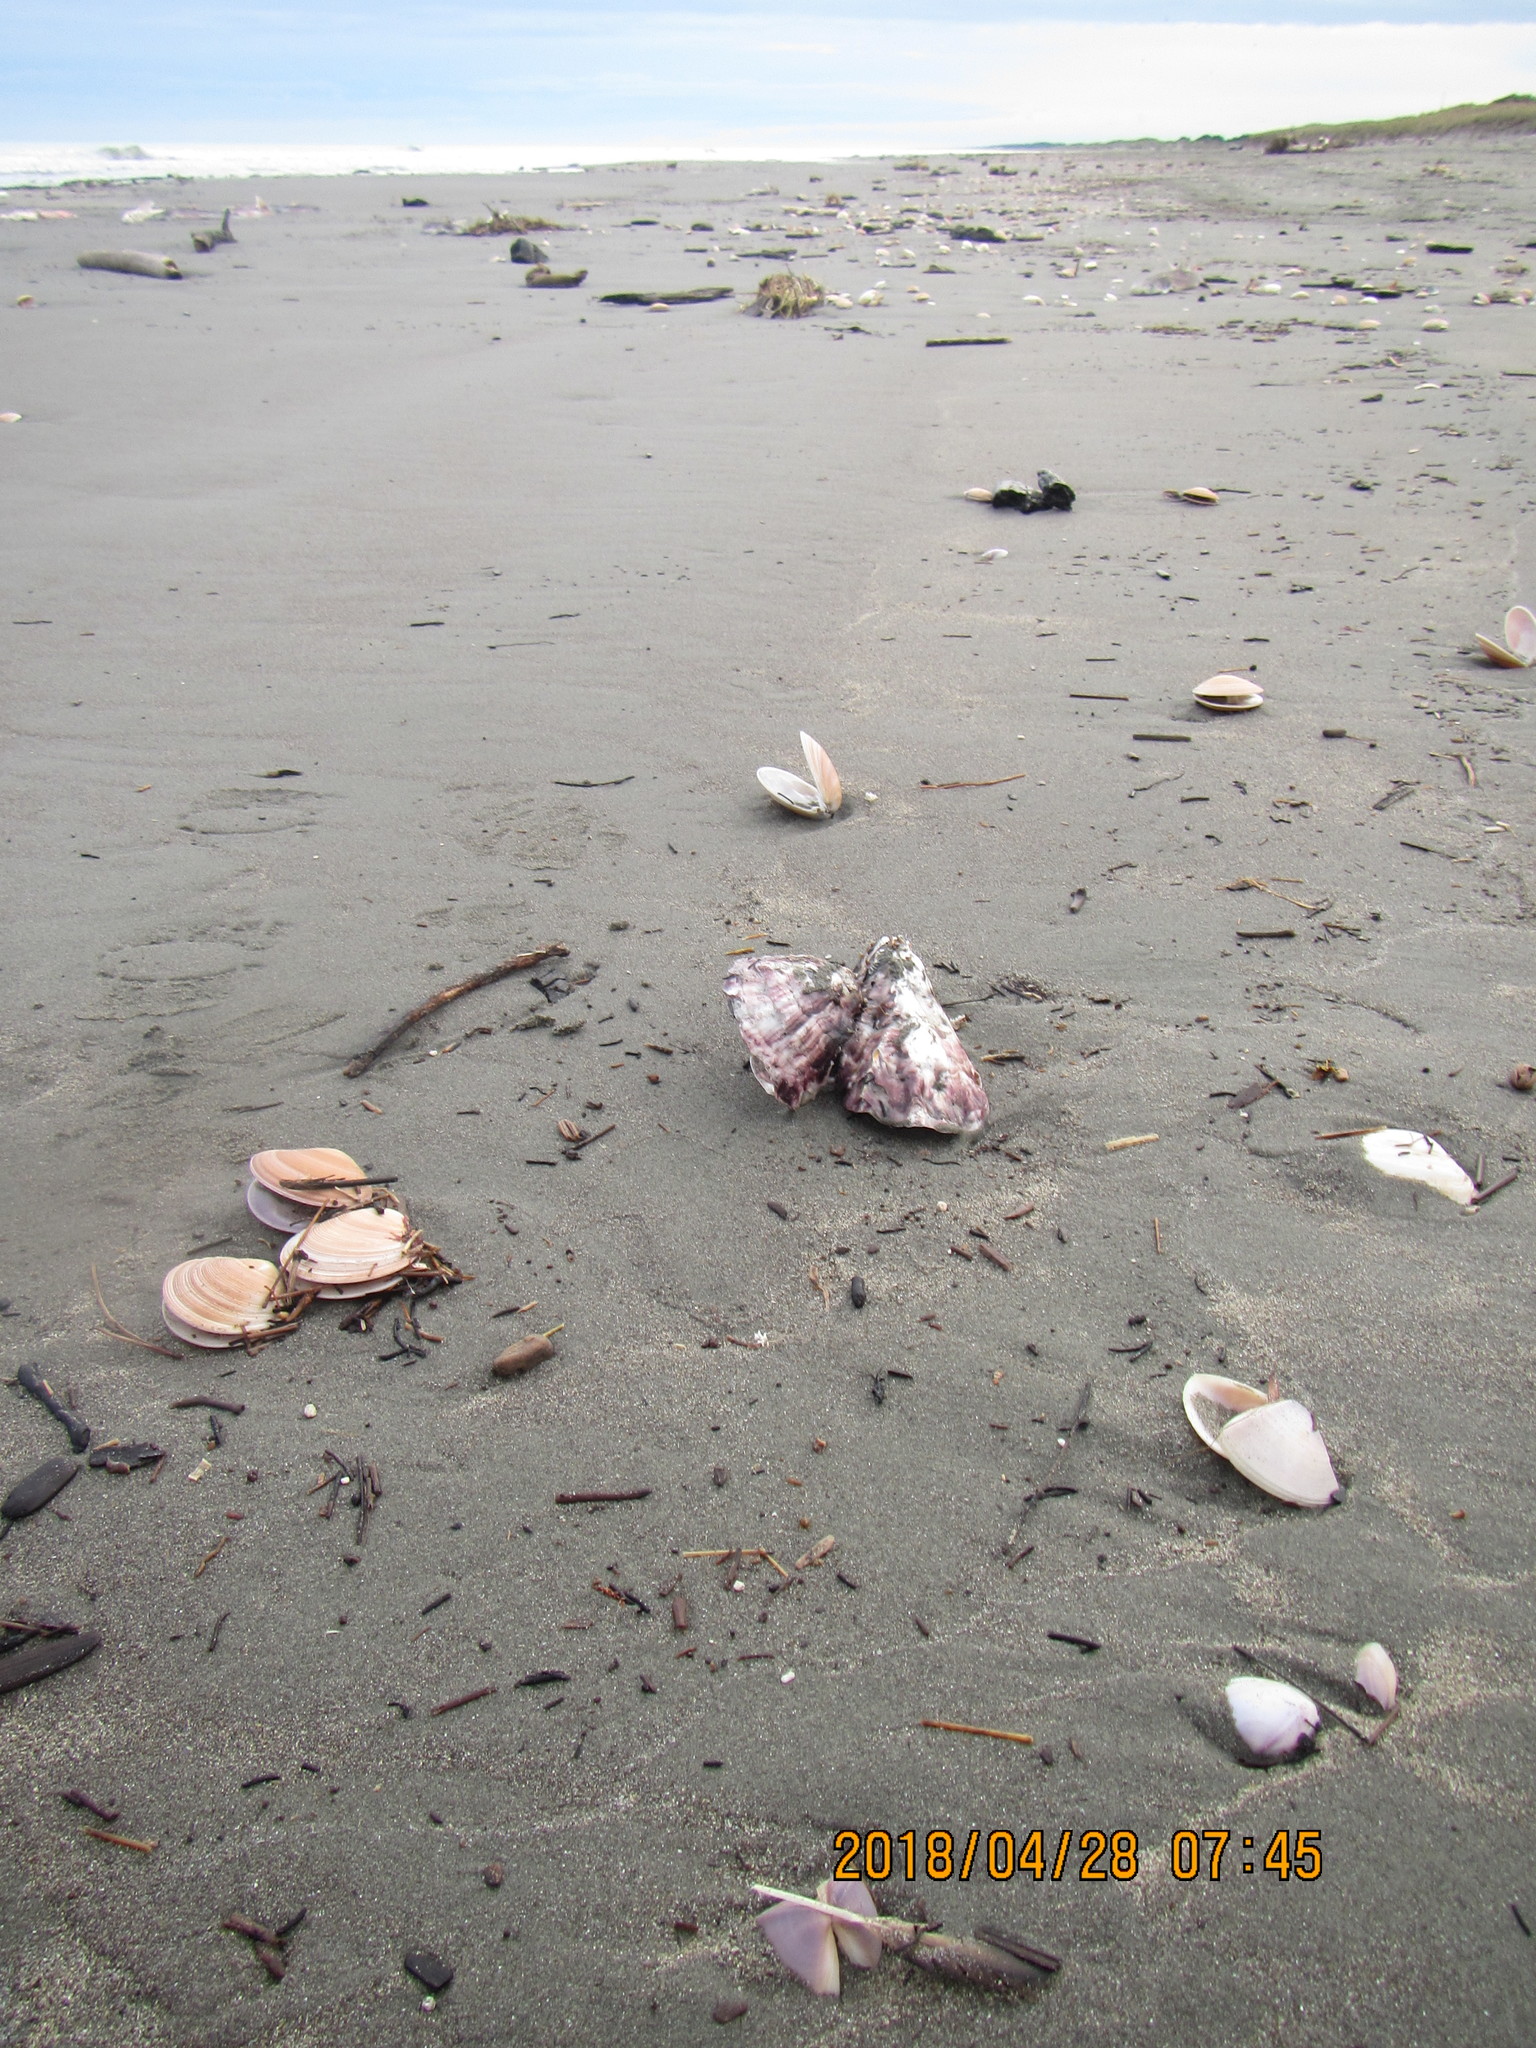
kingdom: Animalia
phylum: Mollusca
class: Bivalvia
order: Ostreida
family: Ostreidae
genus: Magallana
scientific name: Magallana gigas
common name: Pacific oyster
